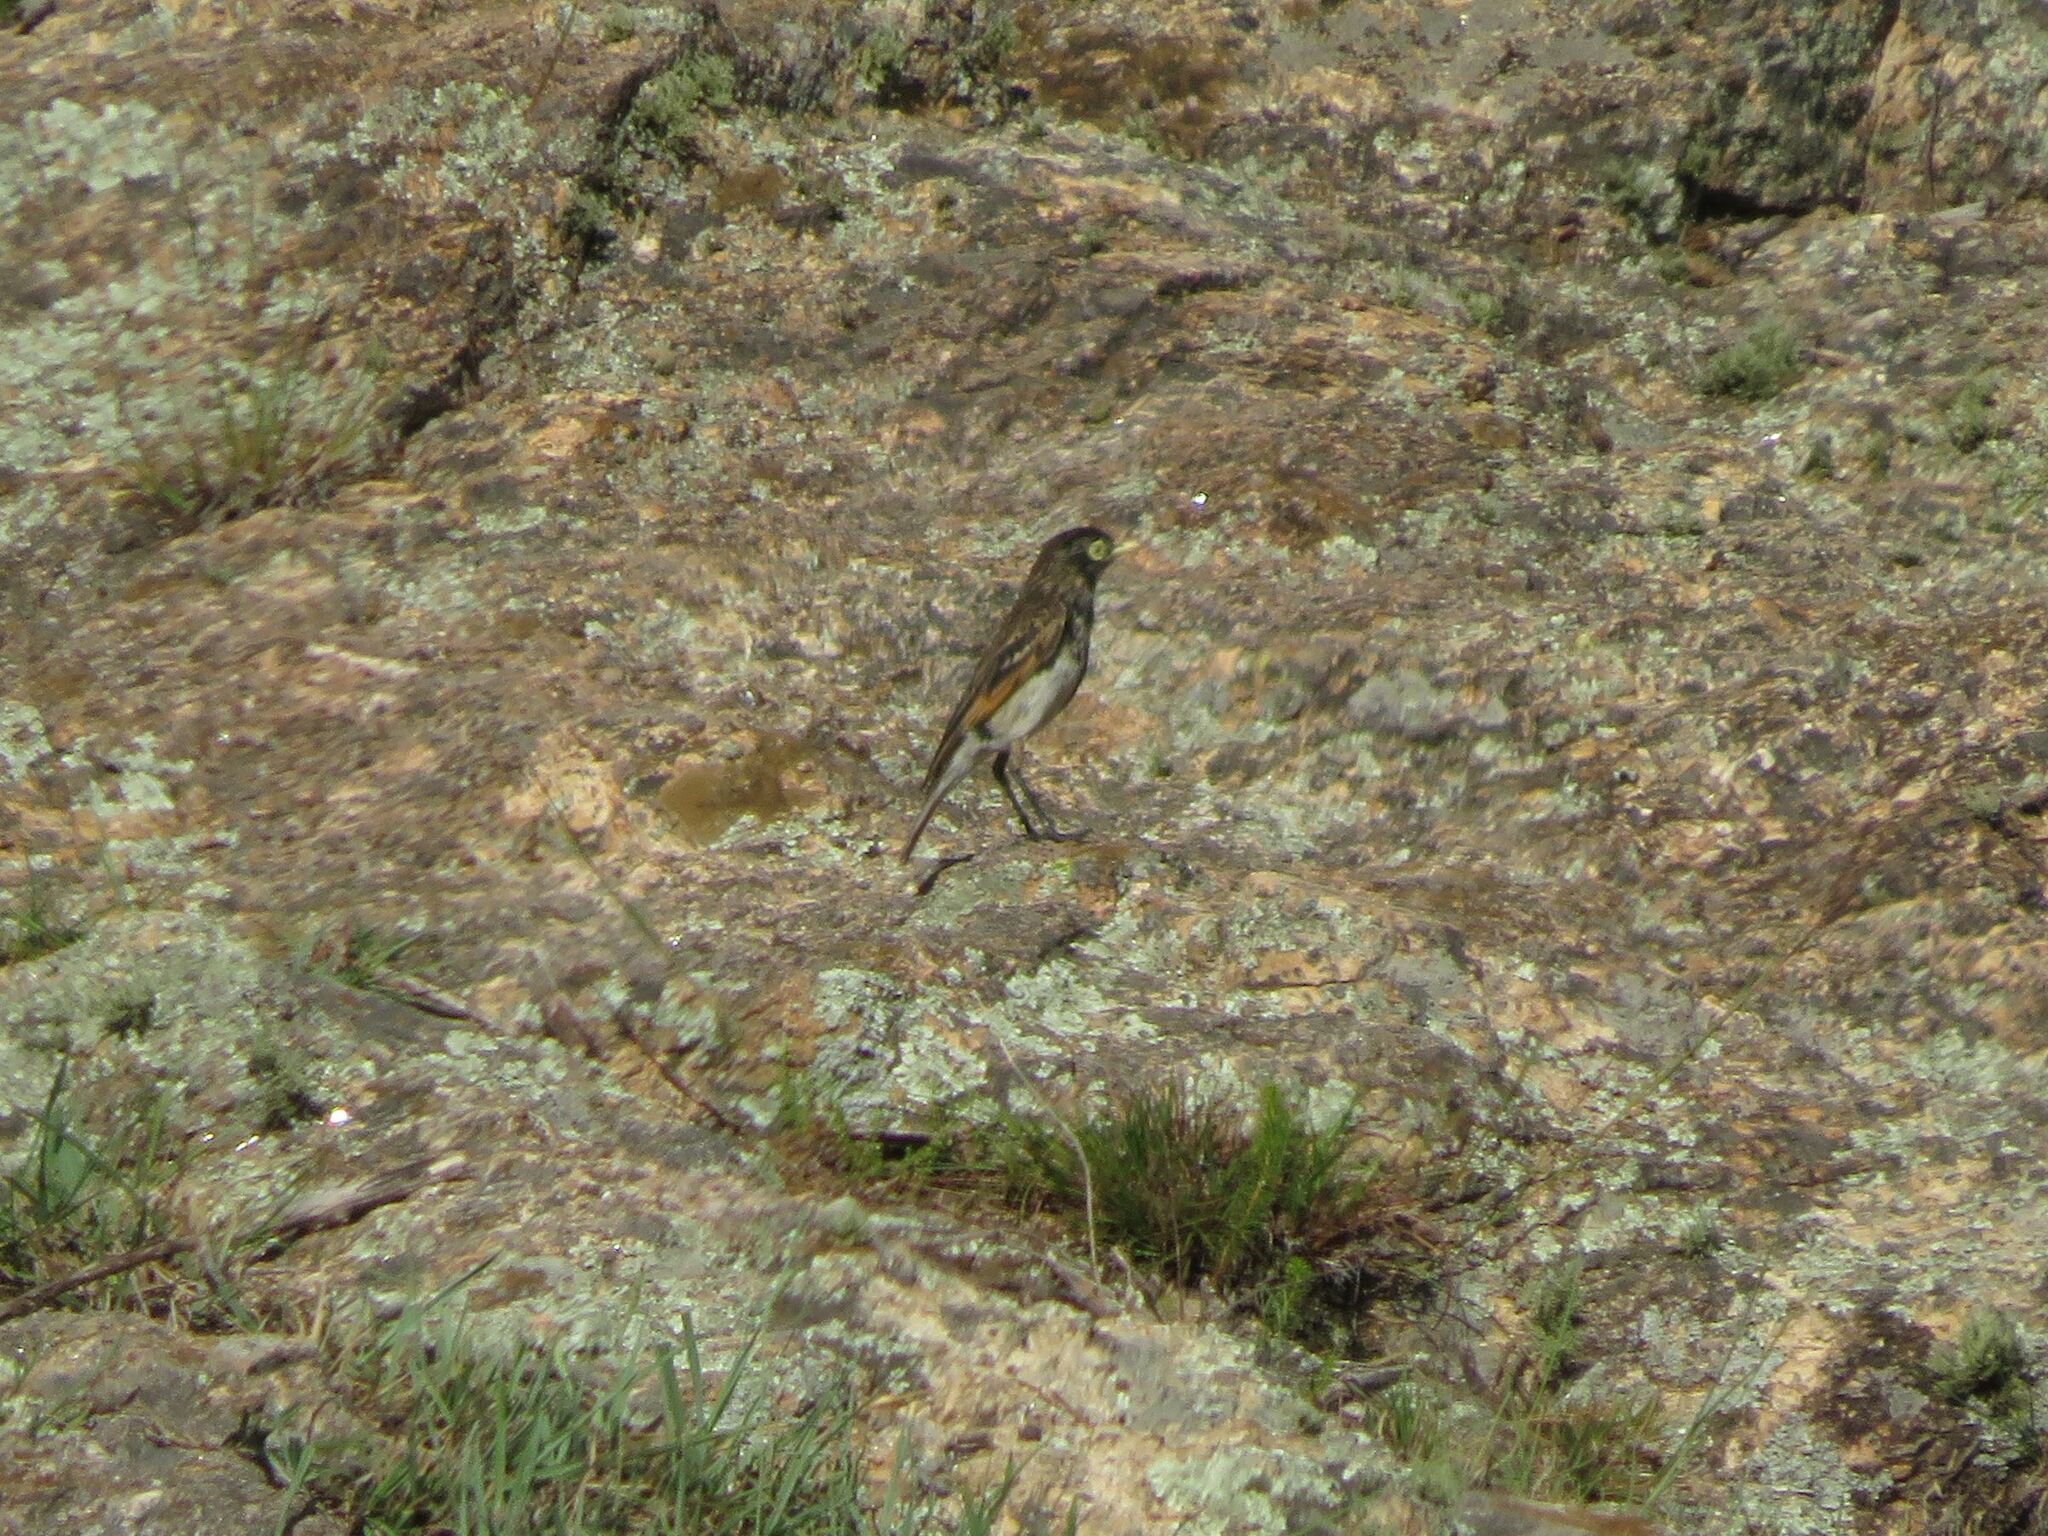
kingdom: Animalia
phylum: Chordata
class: Aves
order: Passeriformes
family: Tyrannidae
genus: Hymenops
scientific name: Hymenops perspicillatus
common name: Spectacled tyrant
